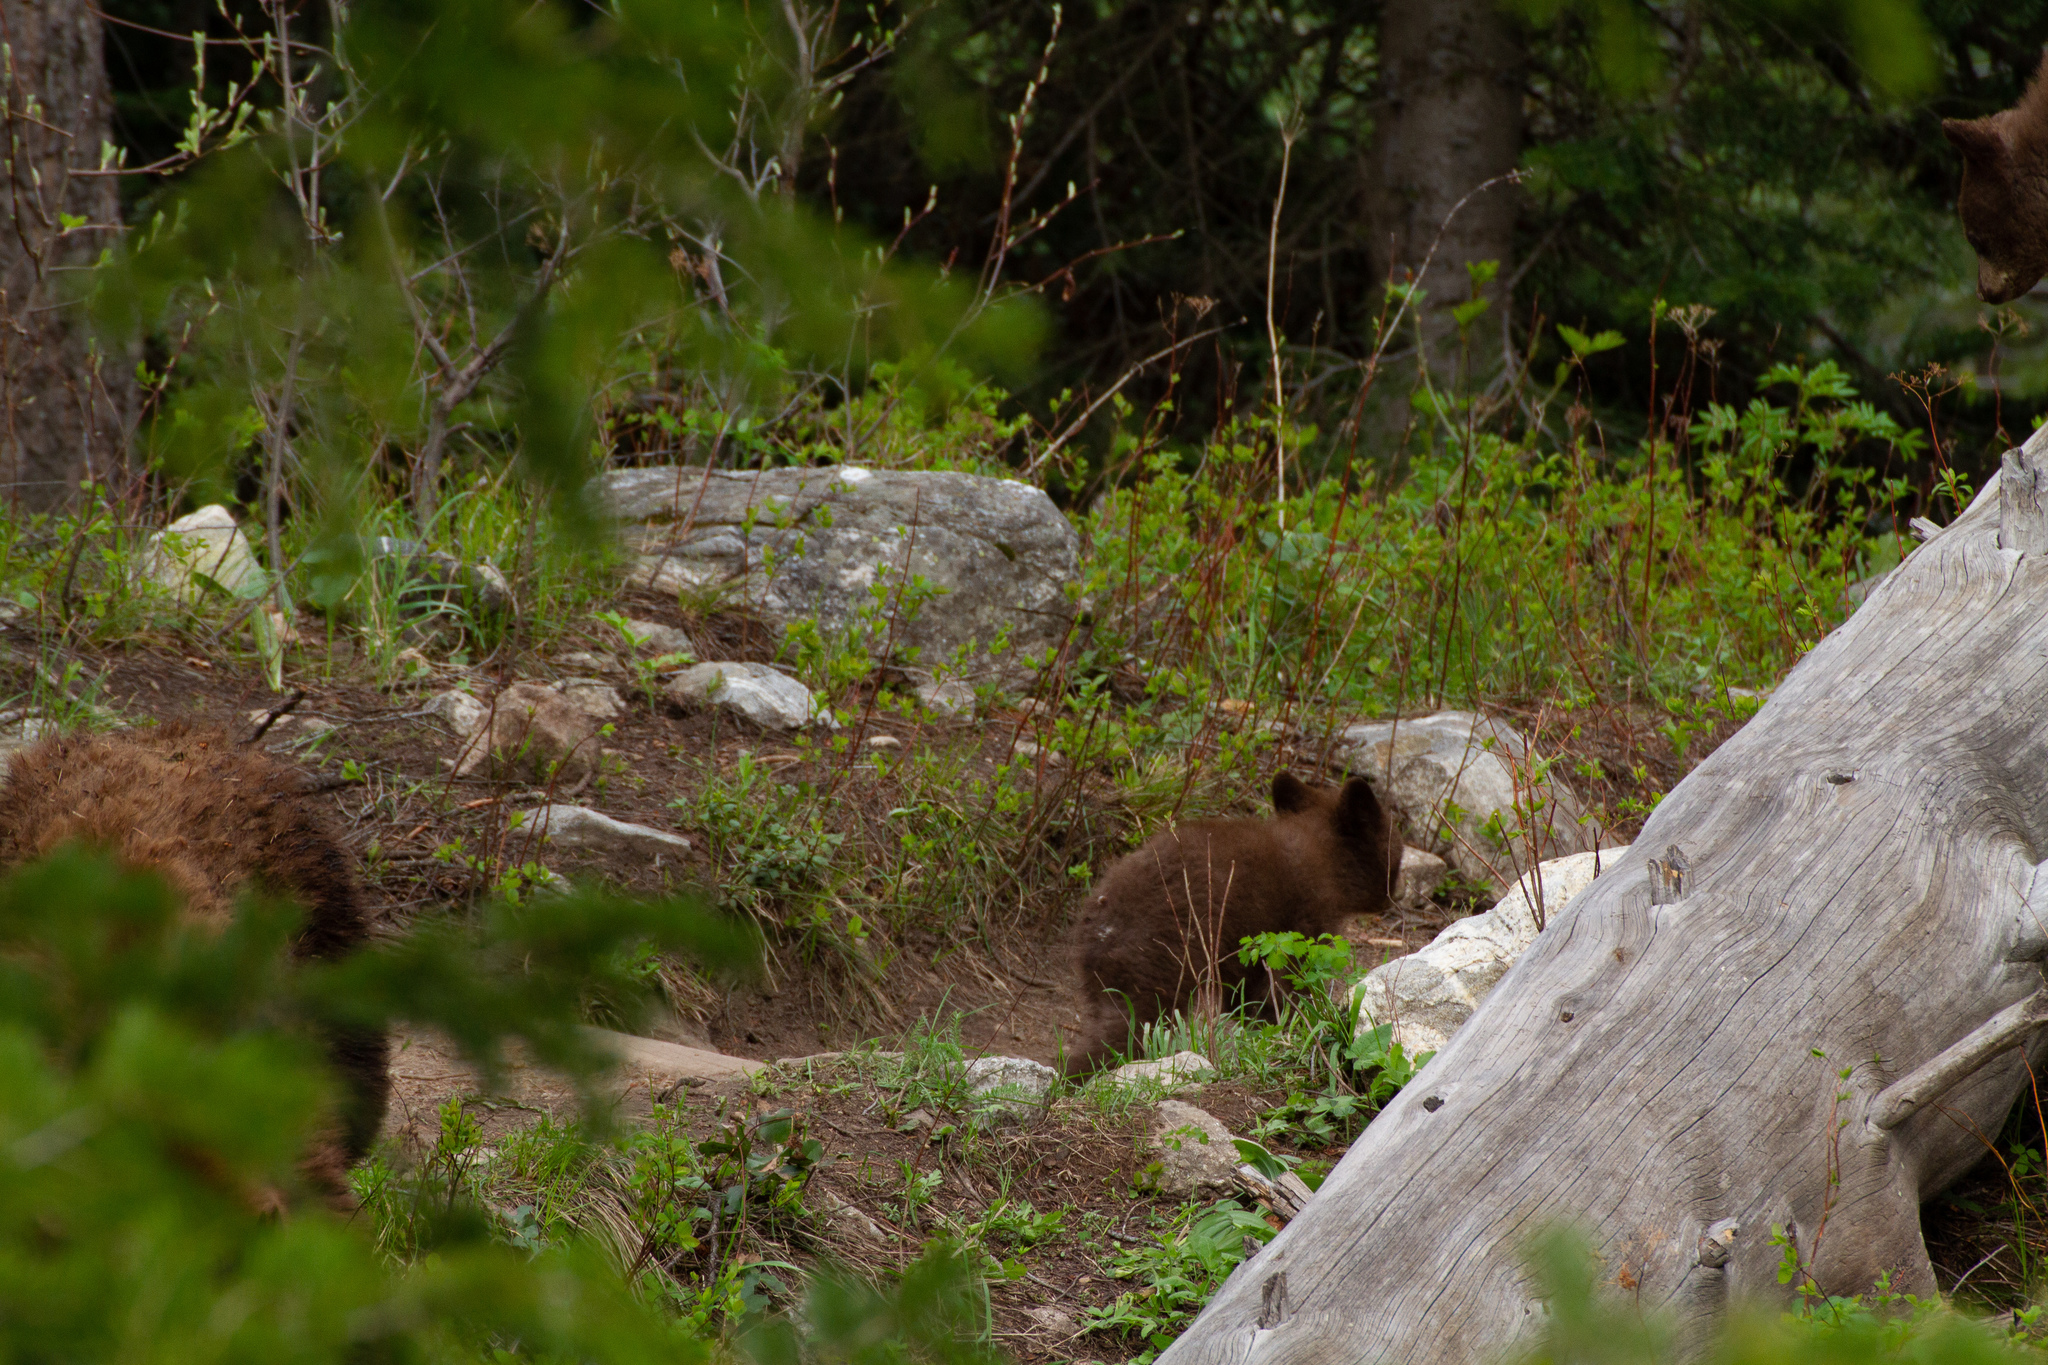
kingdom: Animalia
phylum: Chordata
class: Mammalia
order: Carnivora
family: Ursidae
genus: Ursus
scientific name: Ursus americanus
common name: American black bear
